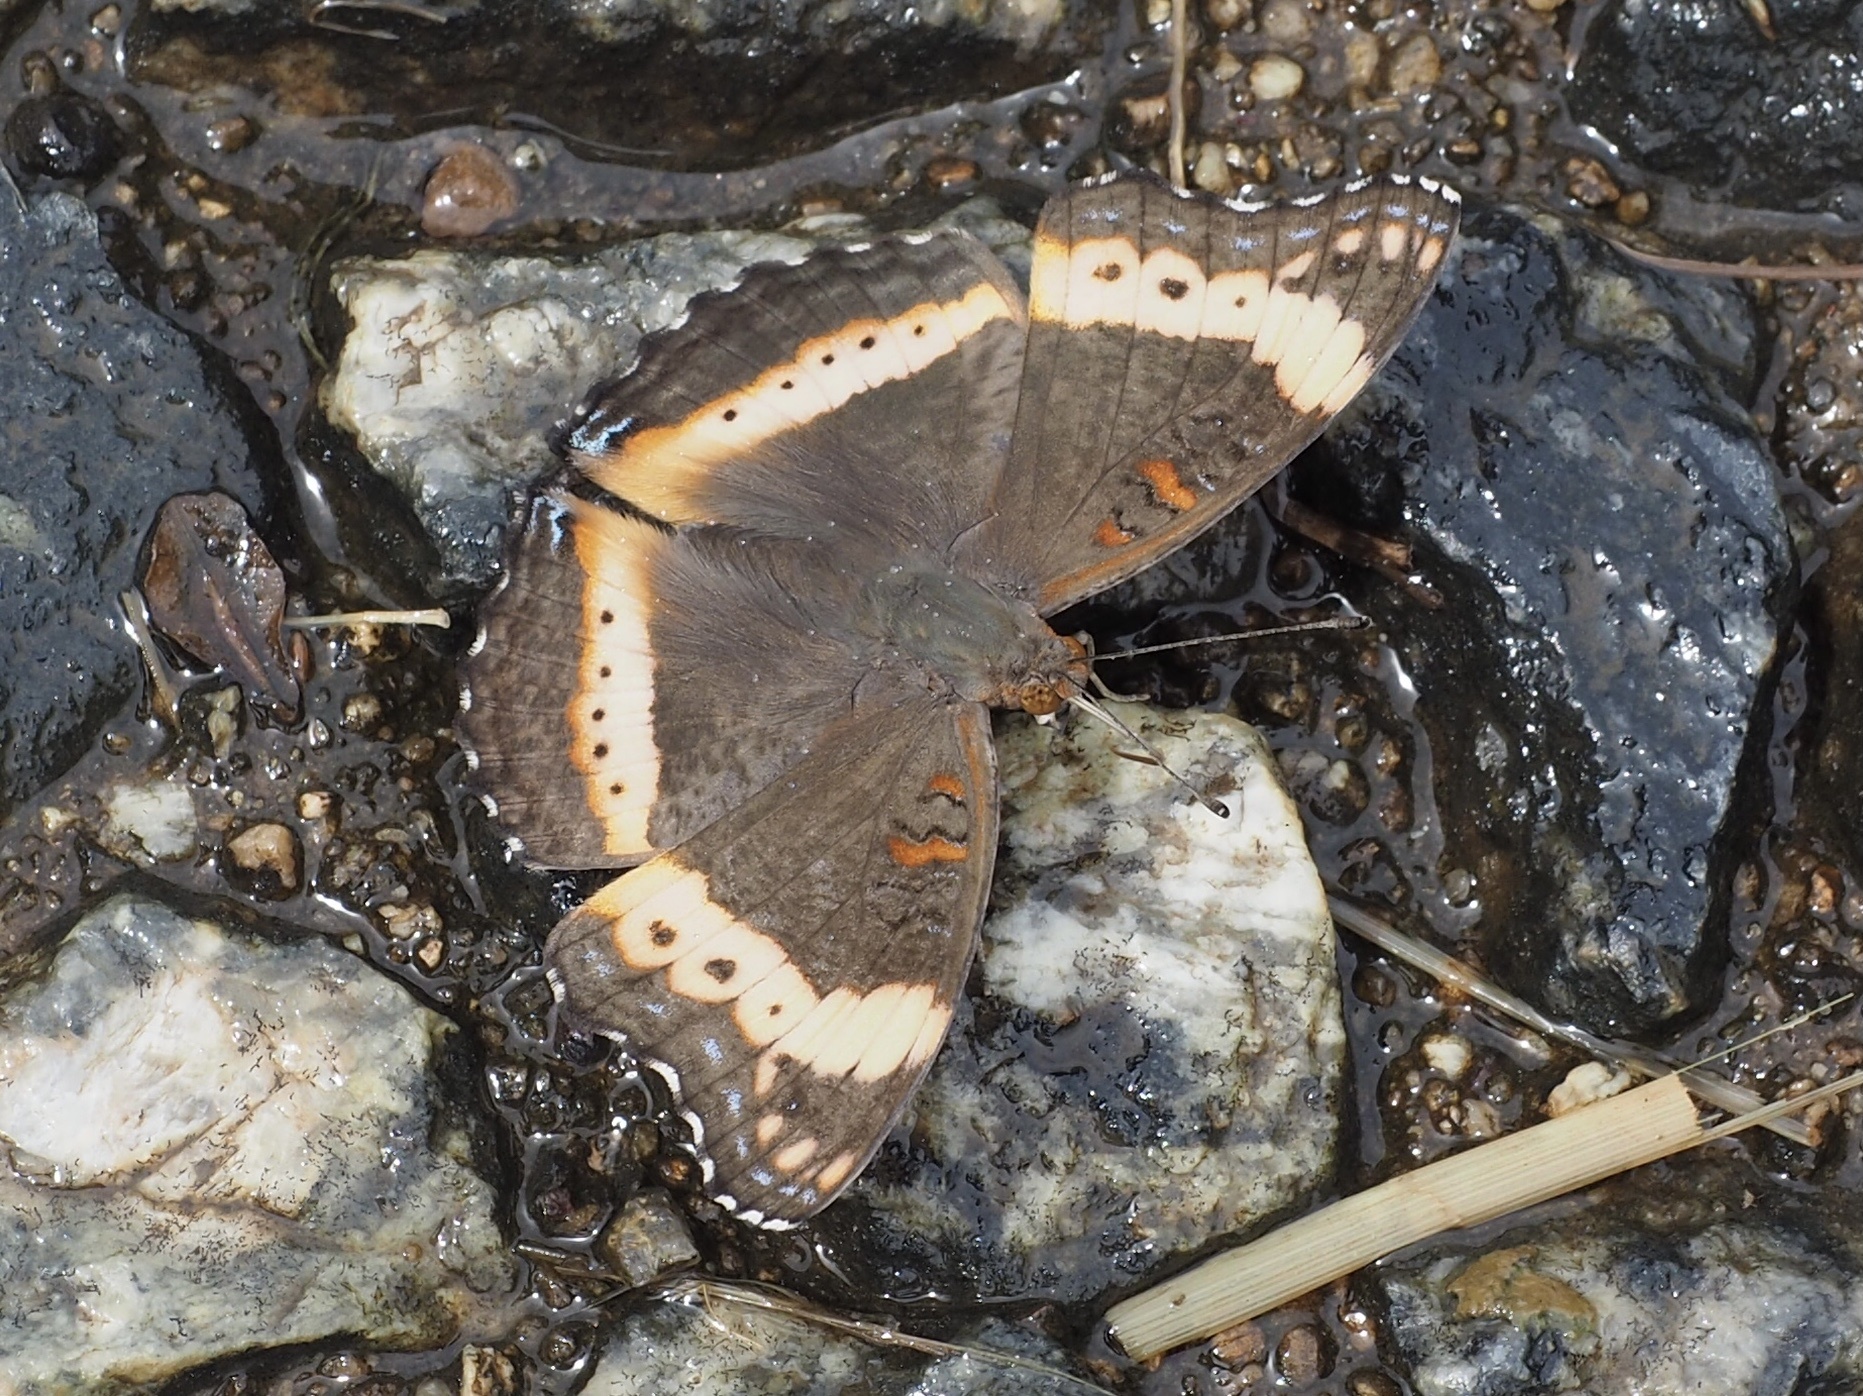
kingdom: Animalia
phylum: Arthropoda
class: Insecta
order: Lepidoptera
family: Nymphalidae
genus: Junonia
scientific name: Junonia archesia
